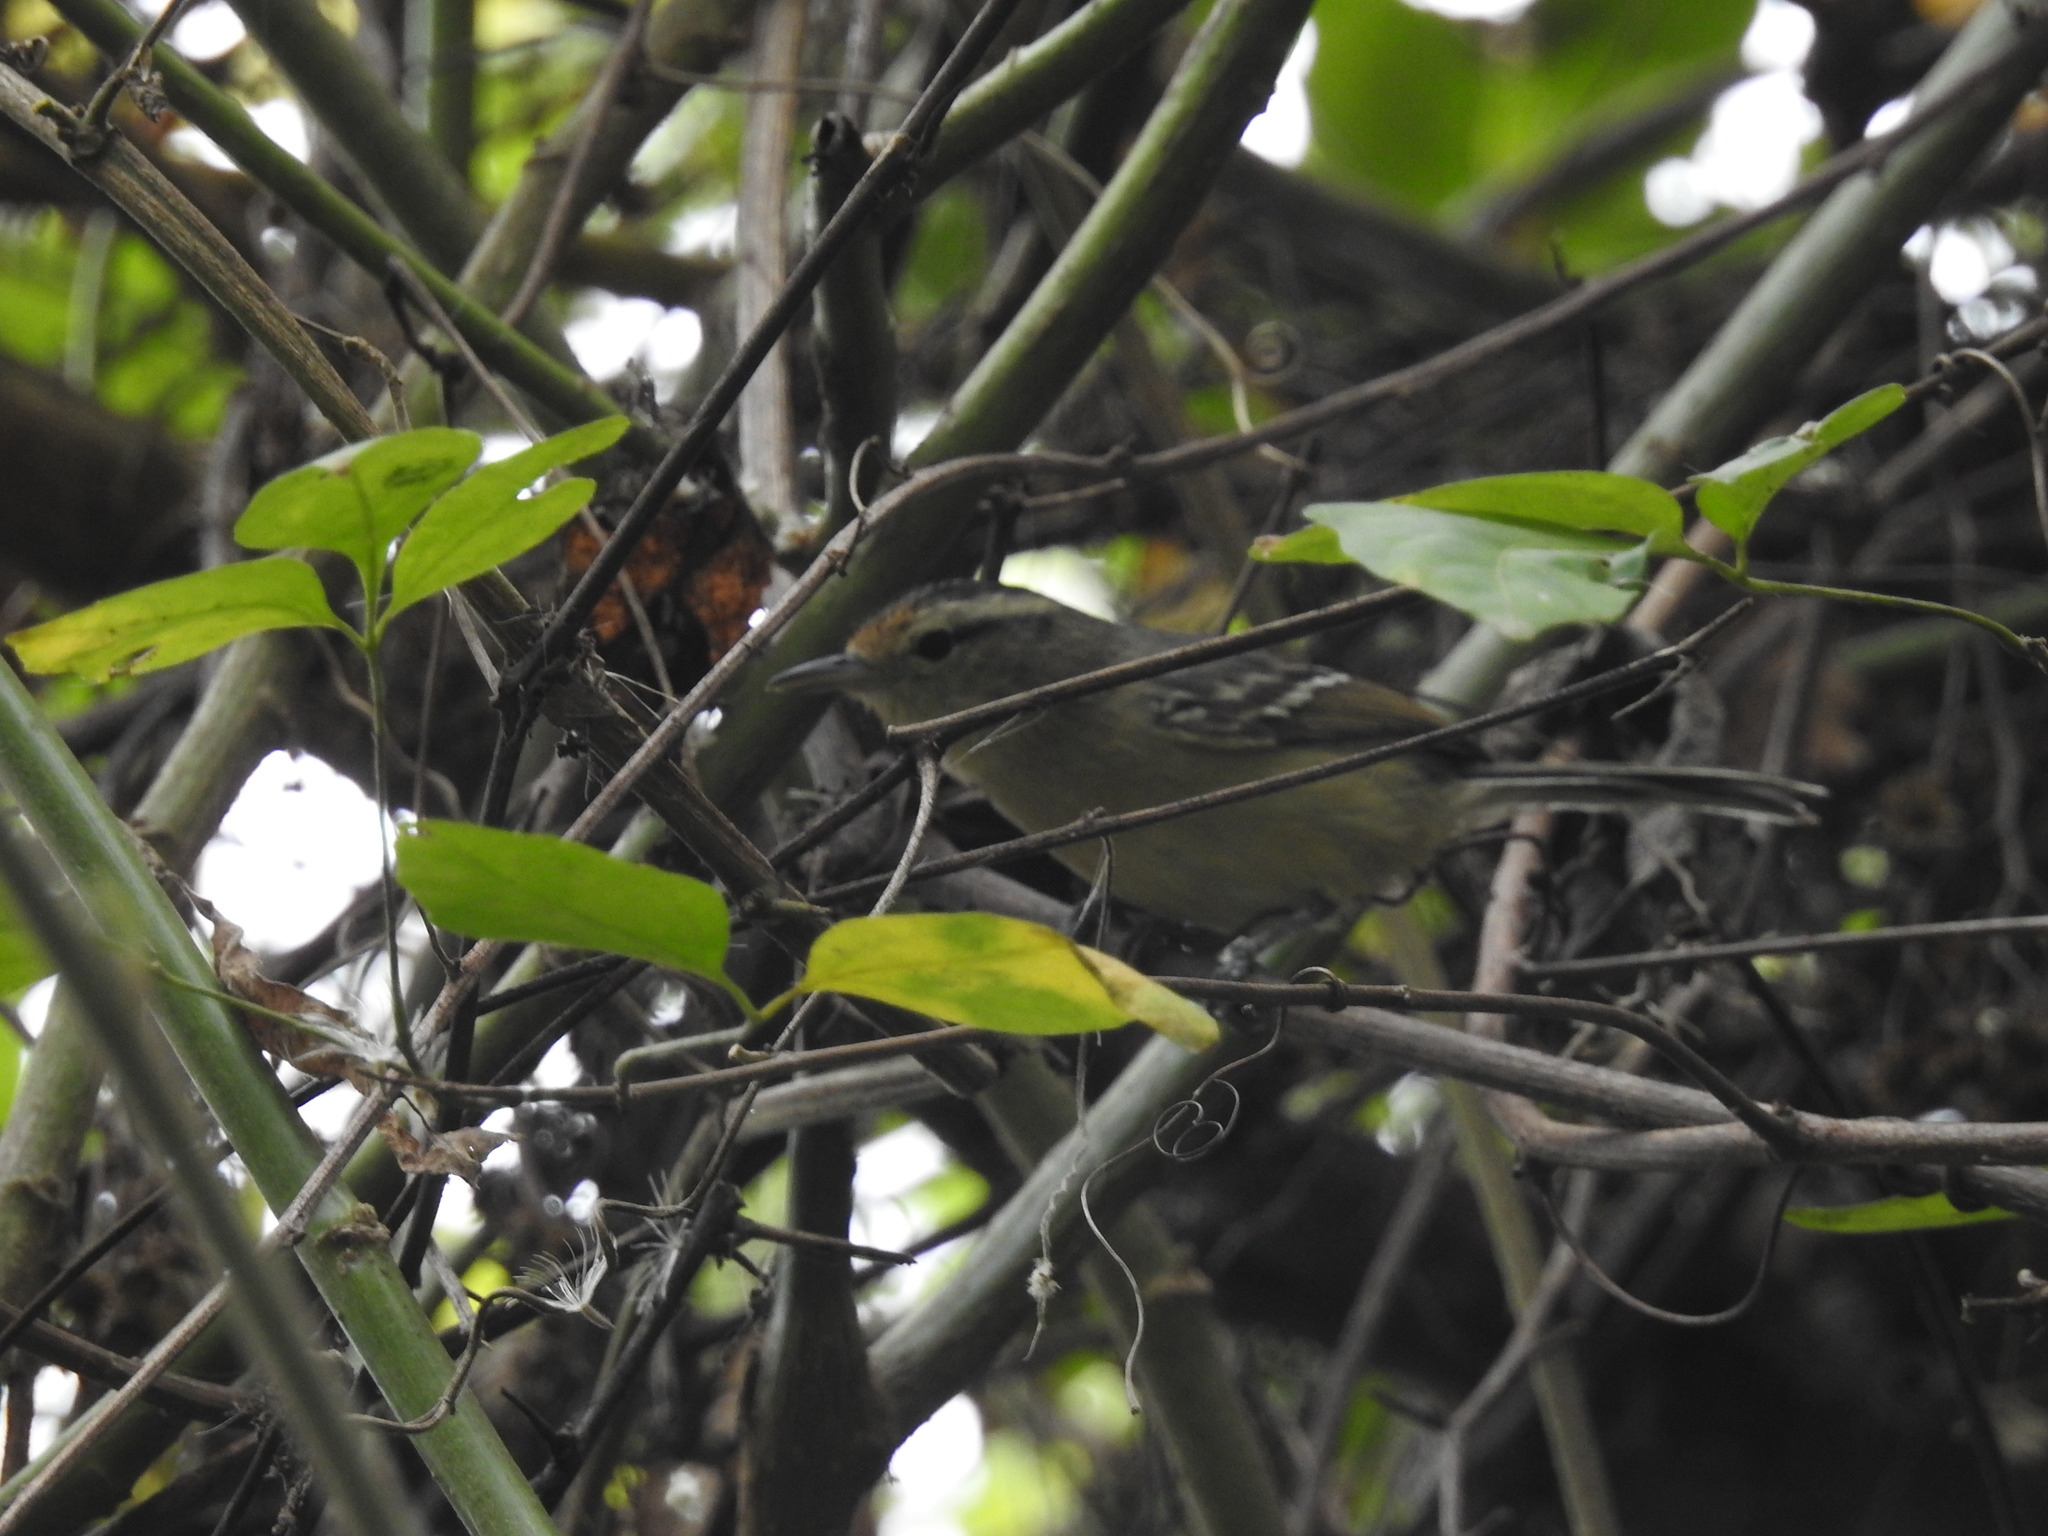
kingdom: Animalia
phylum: Chordata
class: Aves
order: Passeriformes
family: Thamnophilidae
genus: Herpsilochmus
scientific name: Herpsilochmus atricapillus
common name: Black-capped antwren
